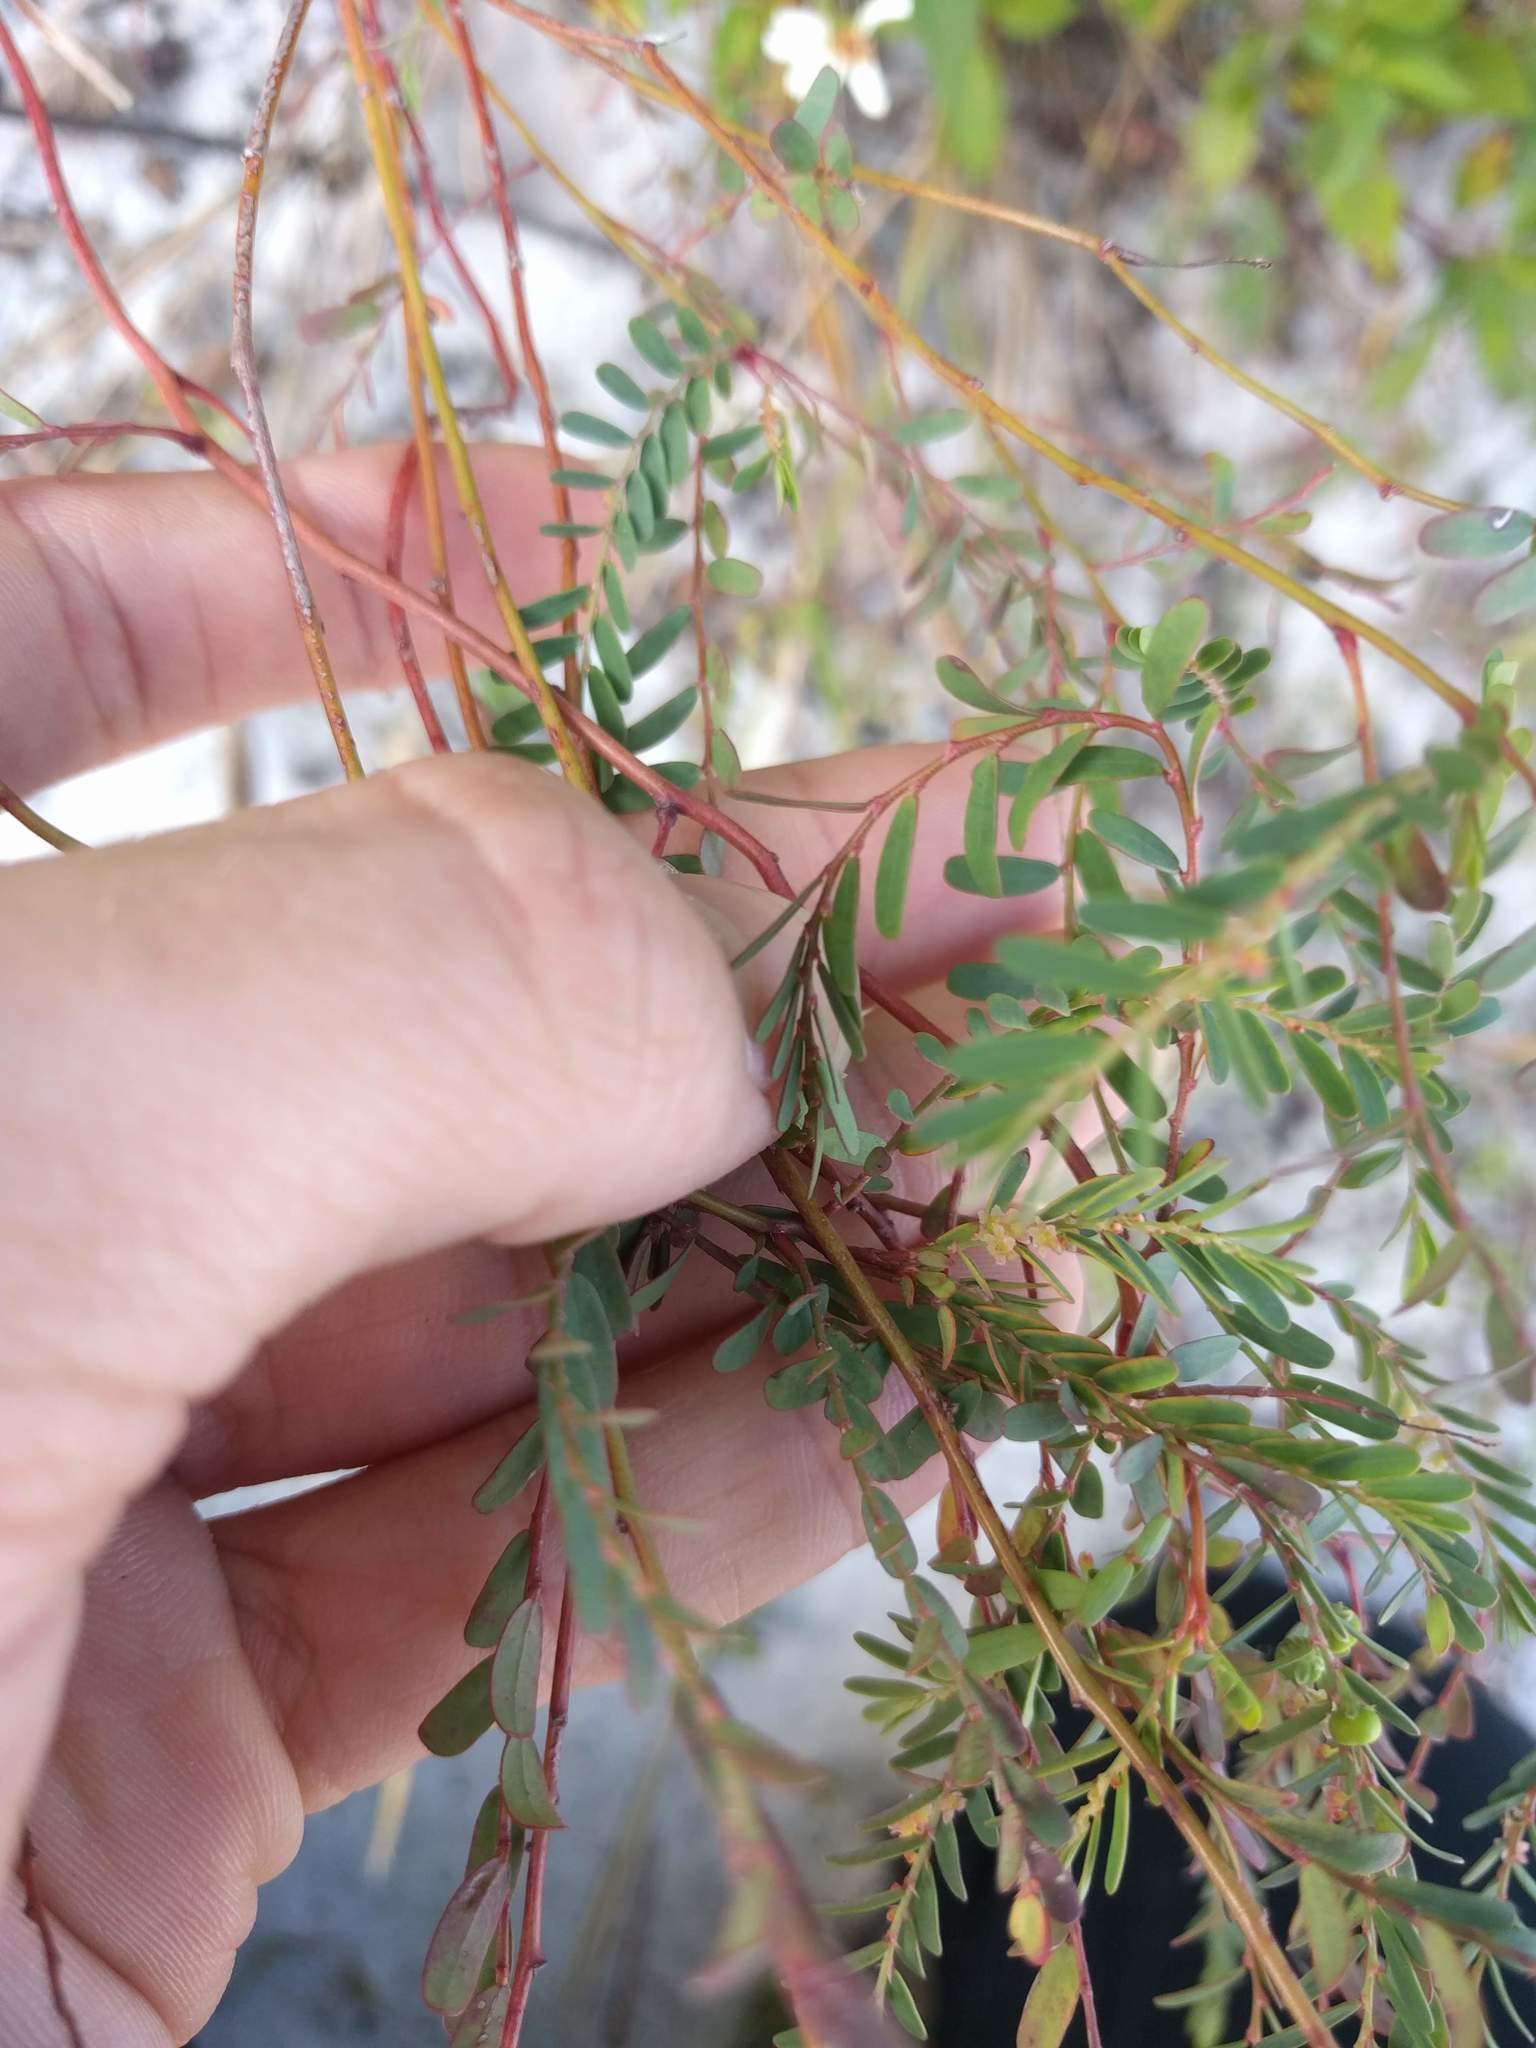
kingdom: Plantae
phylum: Tracheophyta
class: Magnoliopsida
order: Malpighiales
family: Phyllanthaceae
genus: Phyllanthus
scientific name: Phyllanthus abnormis
